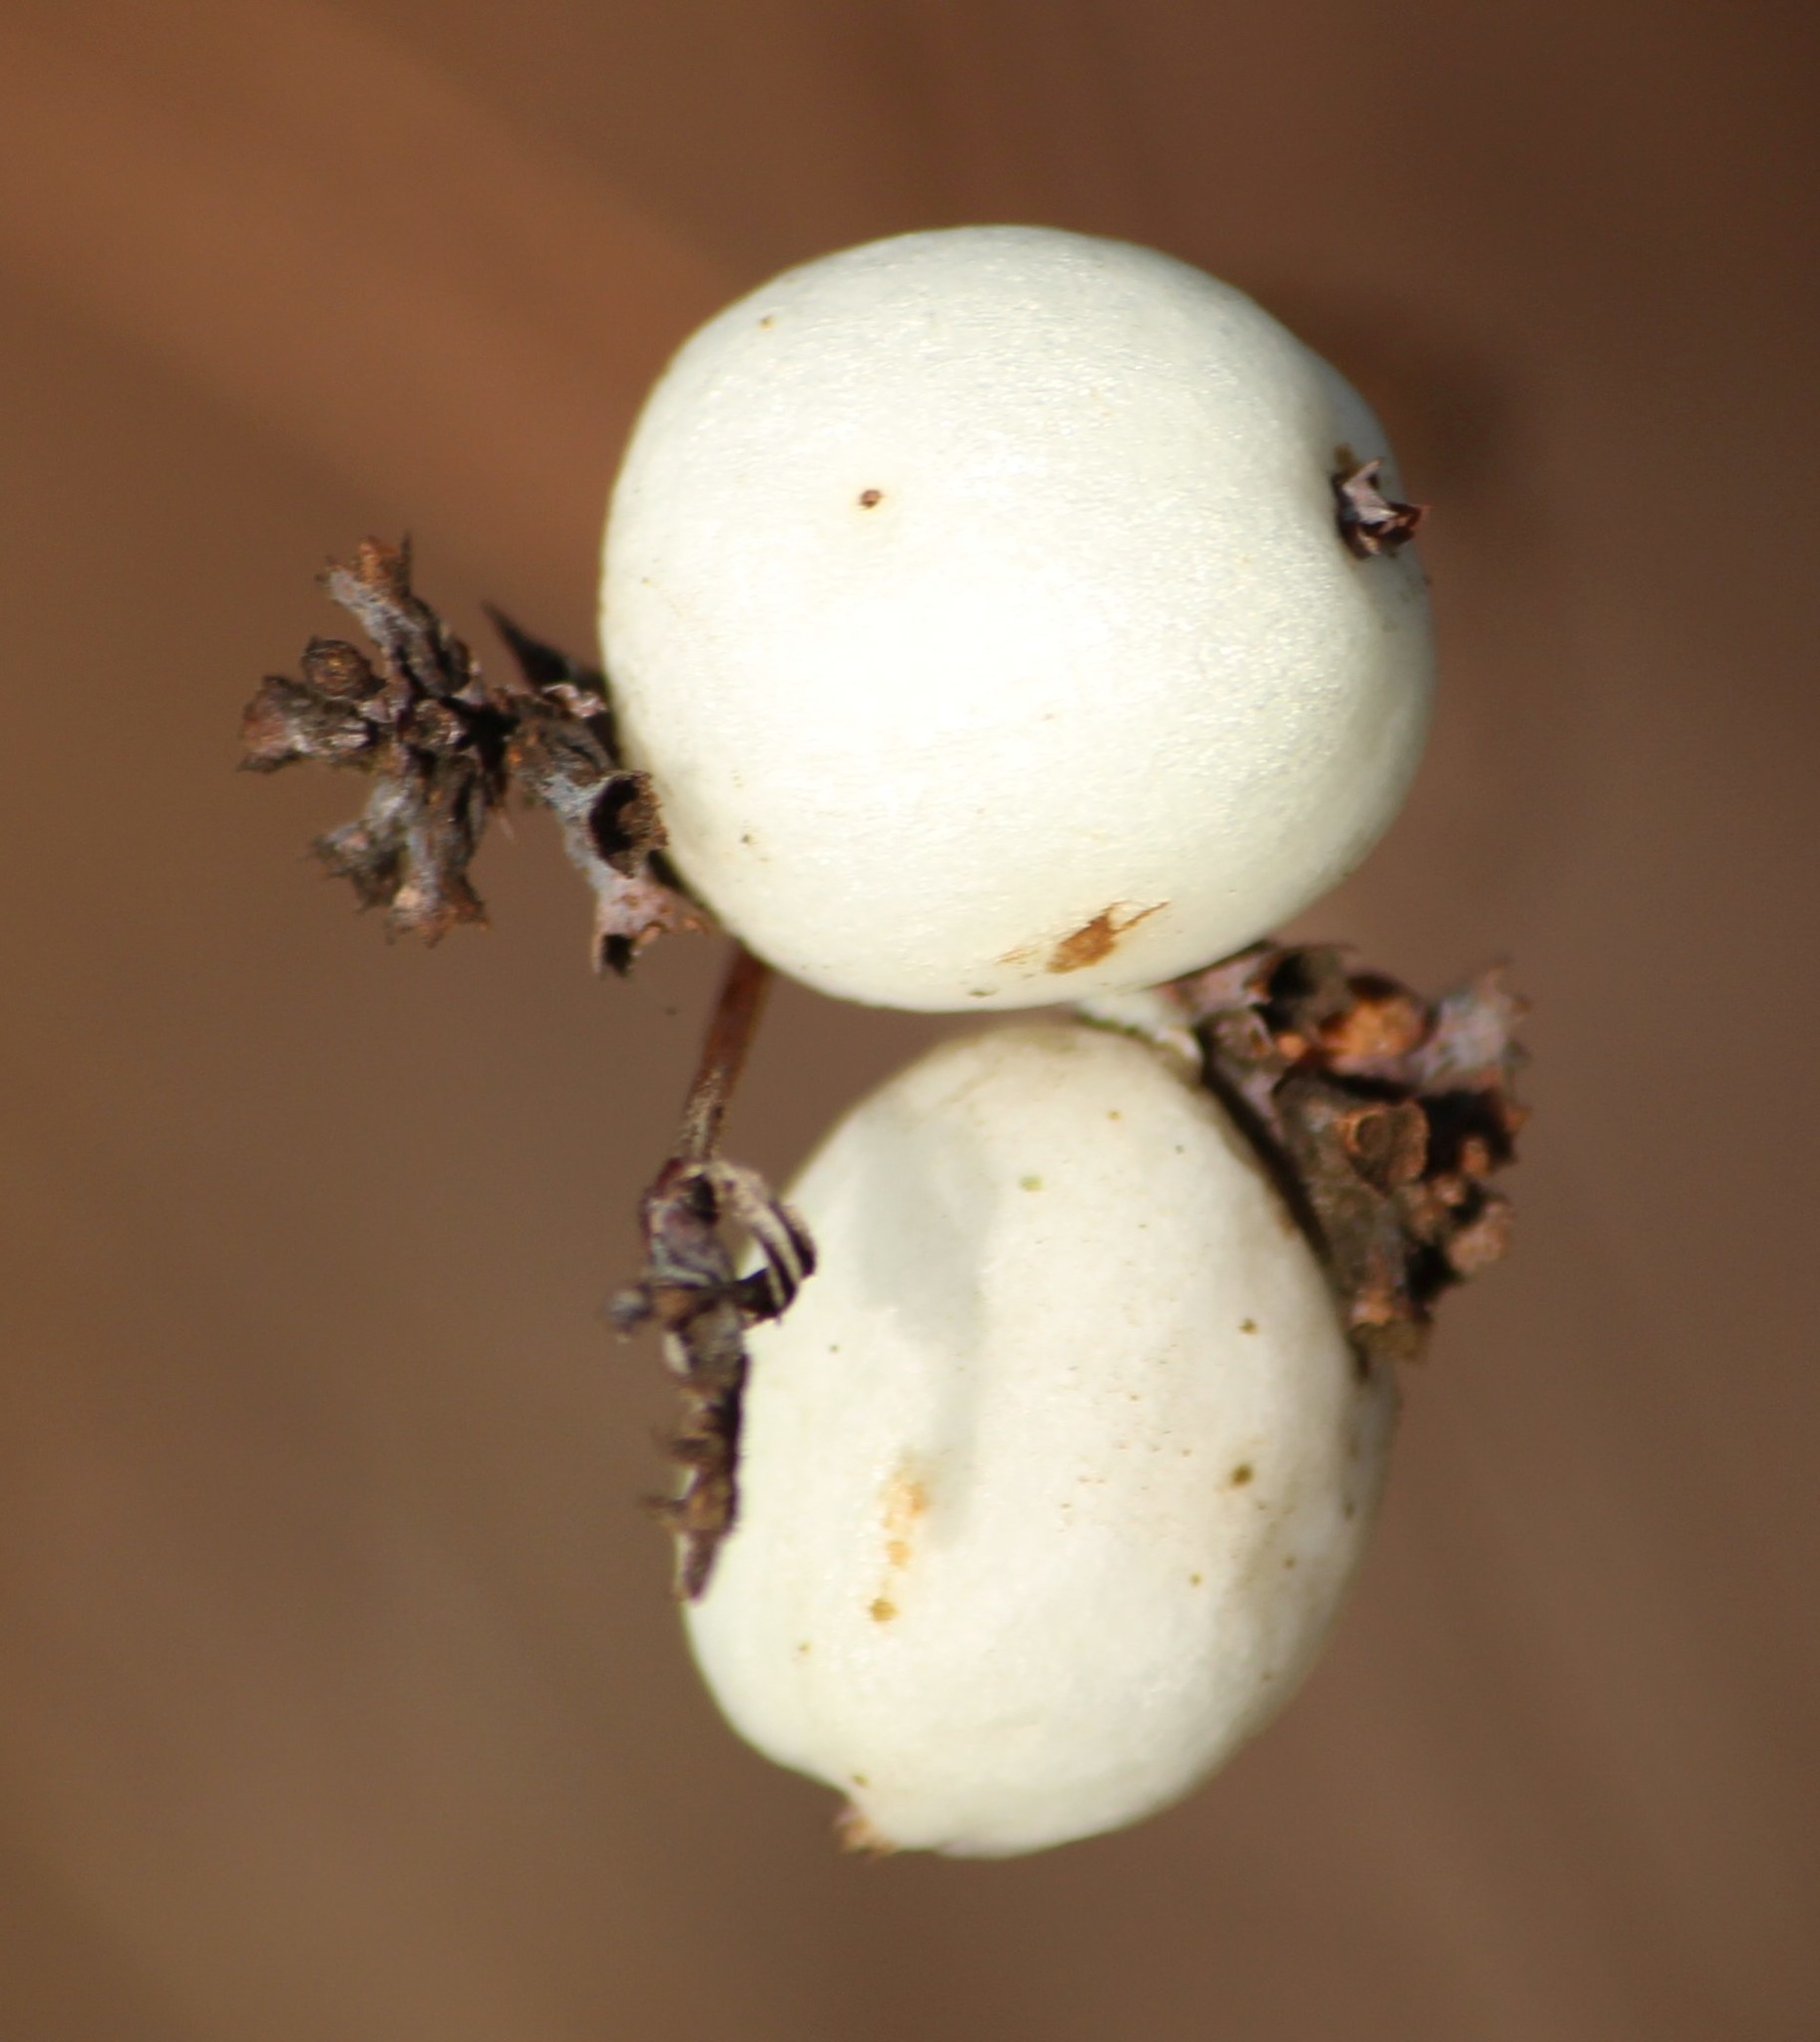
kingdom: Plantae
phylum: Tracheophyta
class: Magnoliopsida
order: Dipsacales
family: Caprifoliaceae
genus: Symphoricarpos
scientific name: Symphoricarpos albus
